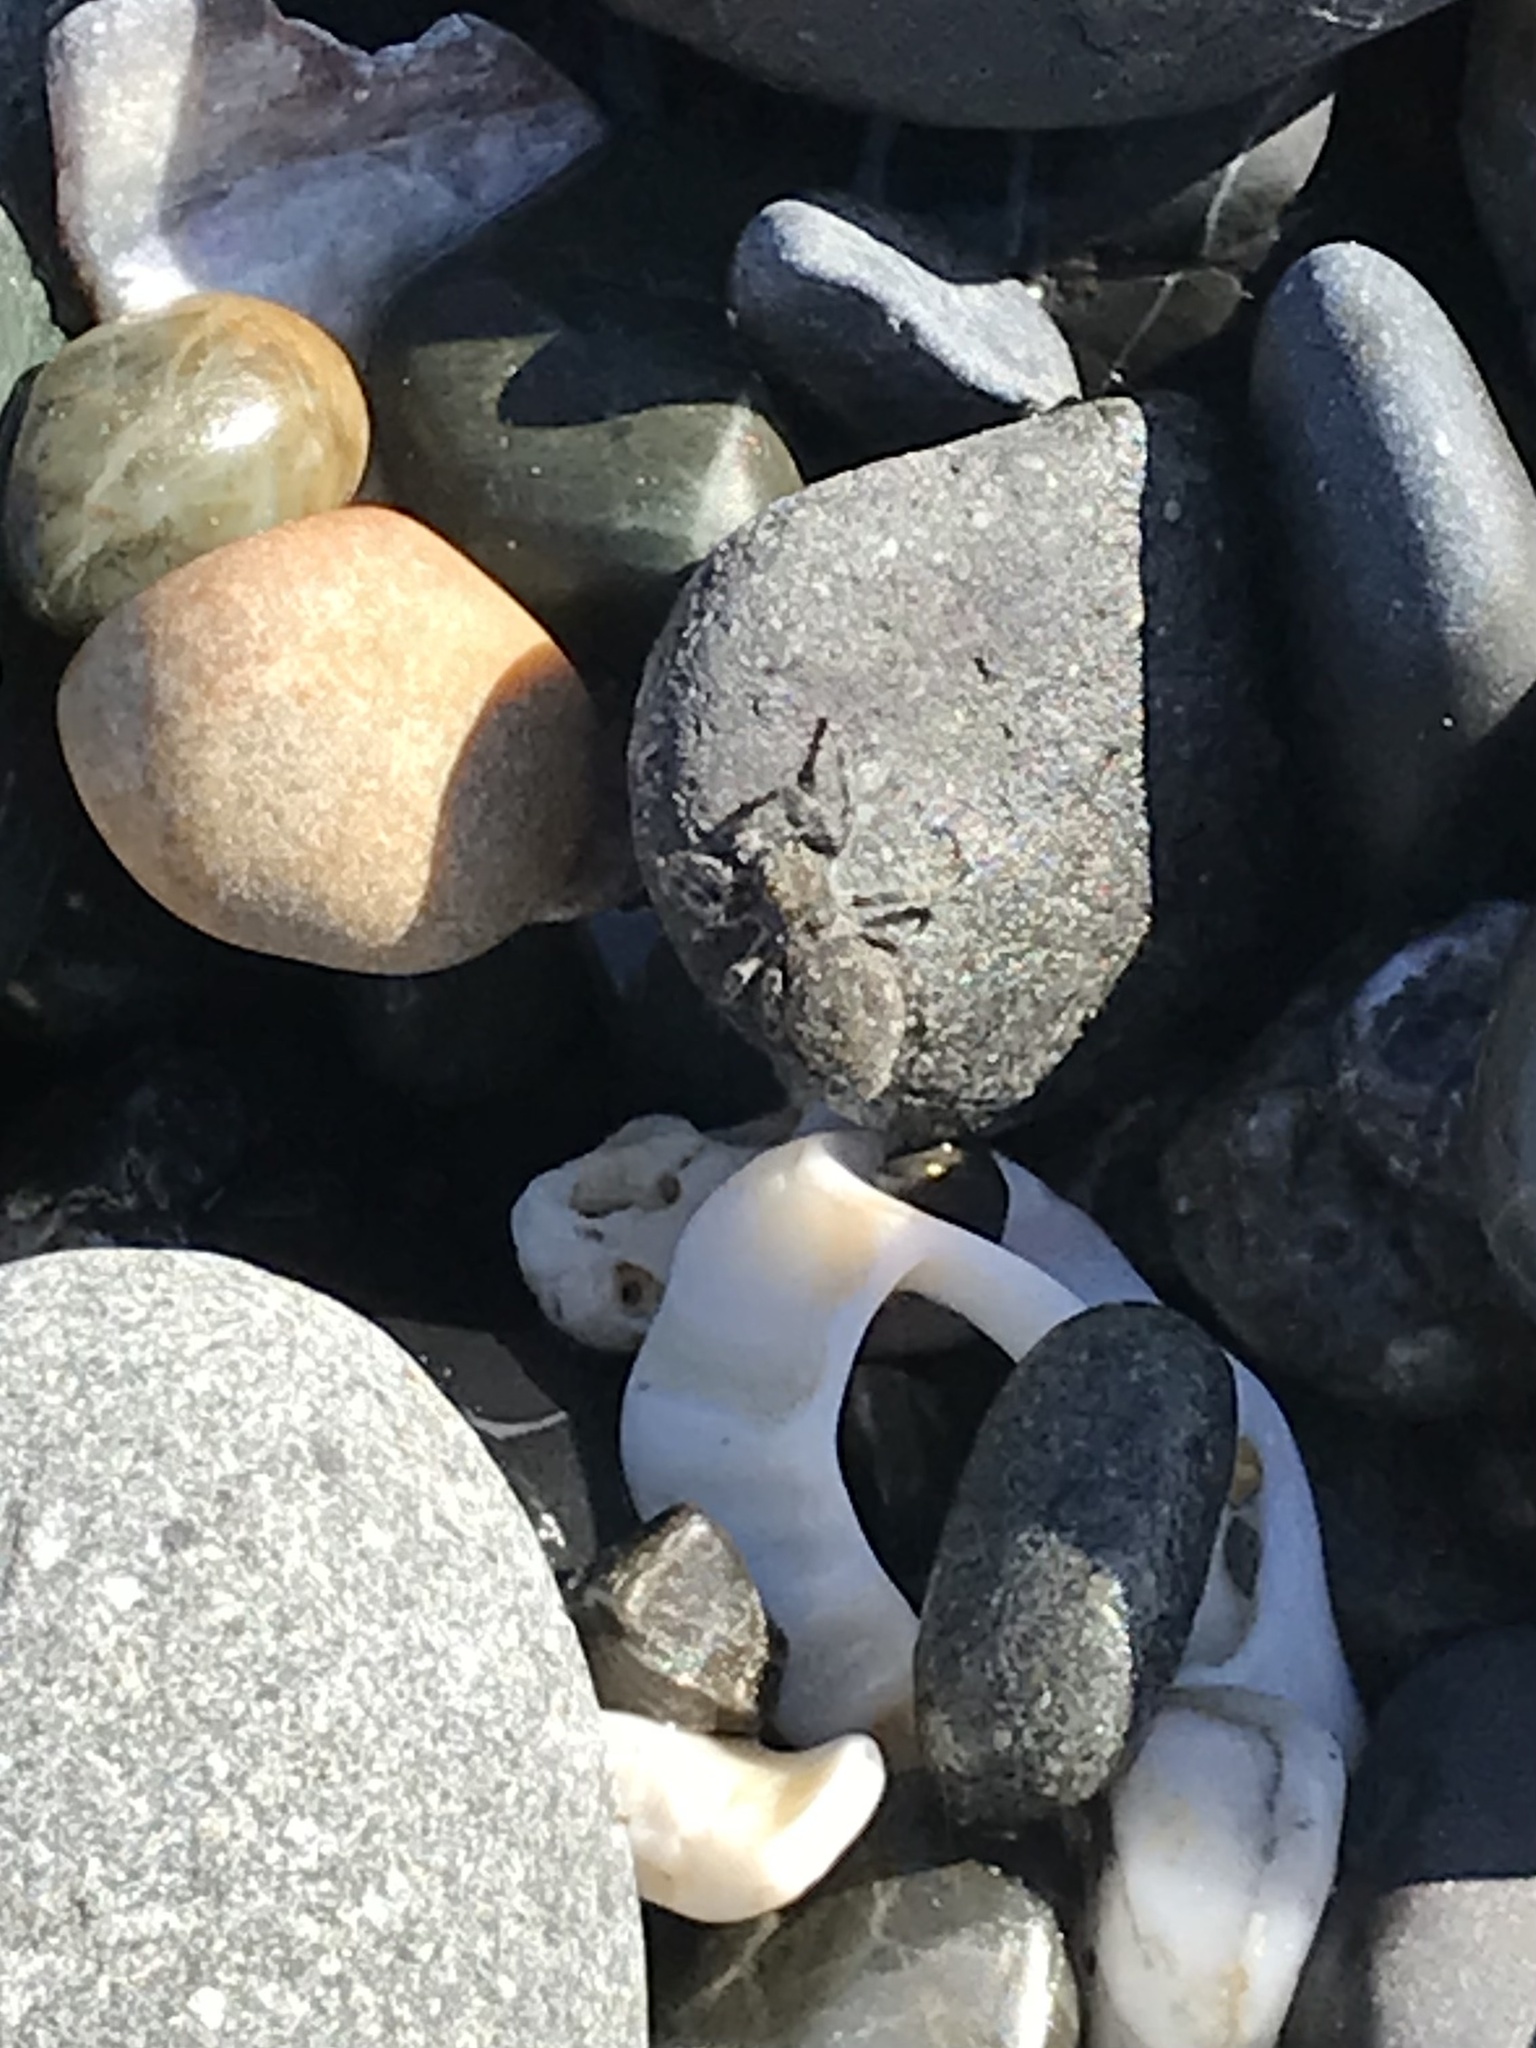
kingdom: Animalia
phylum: Arthropoda
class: Arachnida
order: Araneae
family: Salticidae
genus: Terralonus
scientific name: Terralonus californicus
